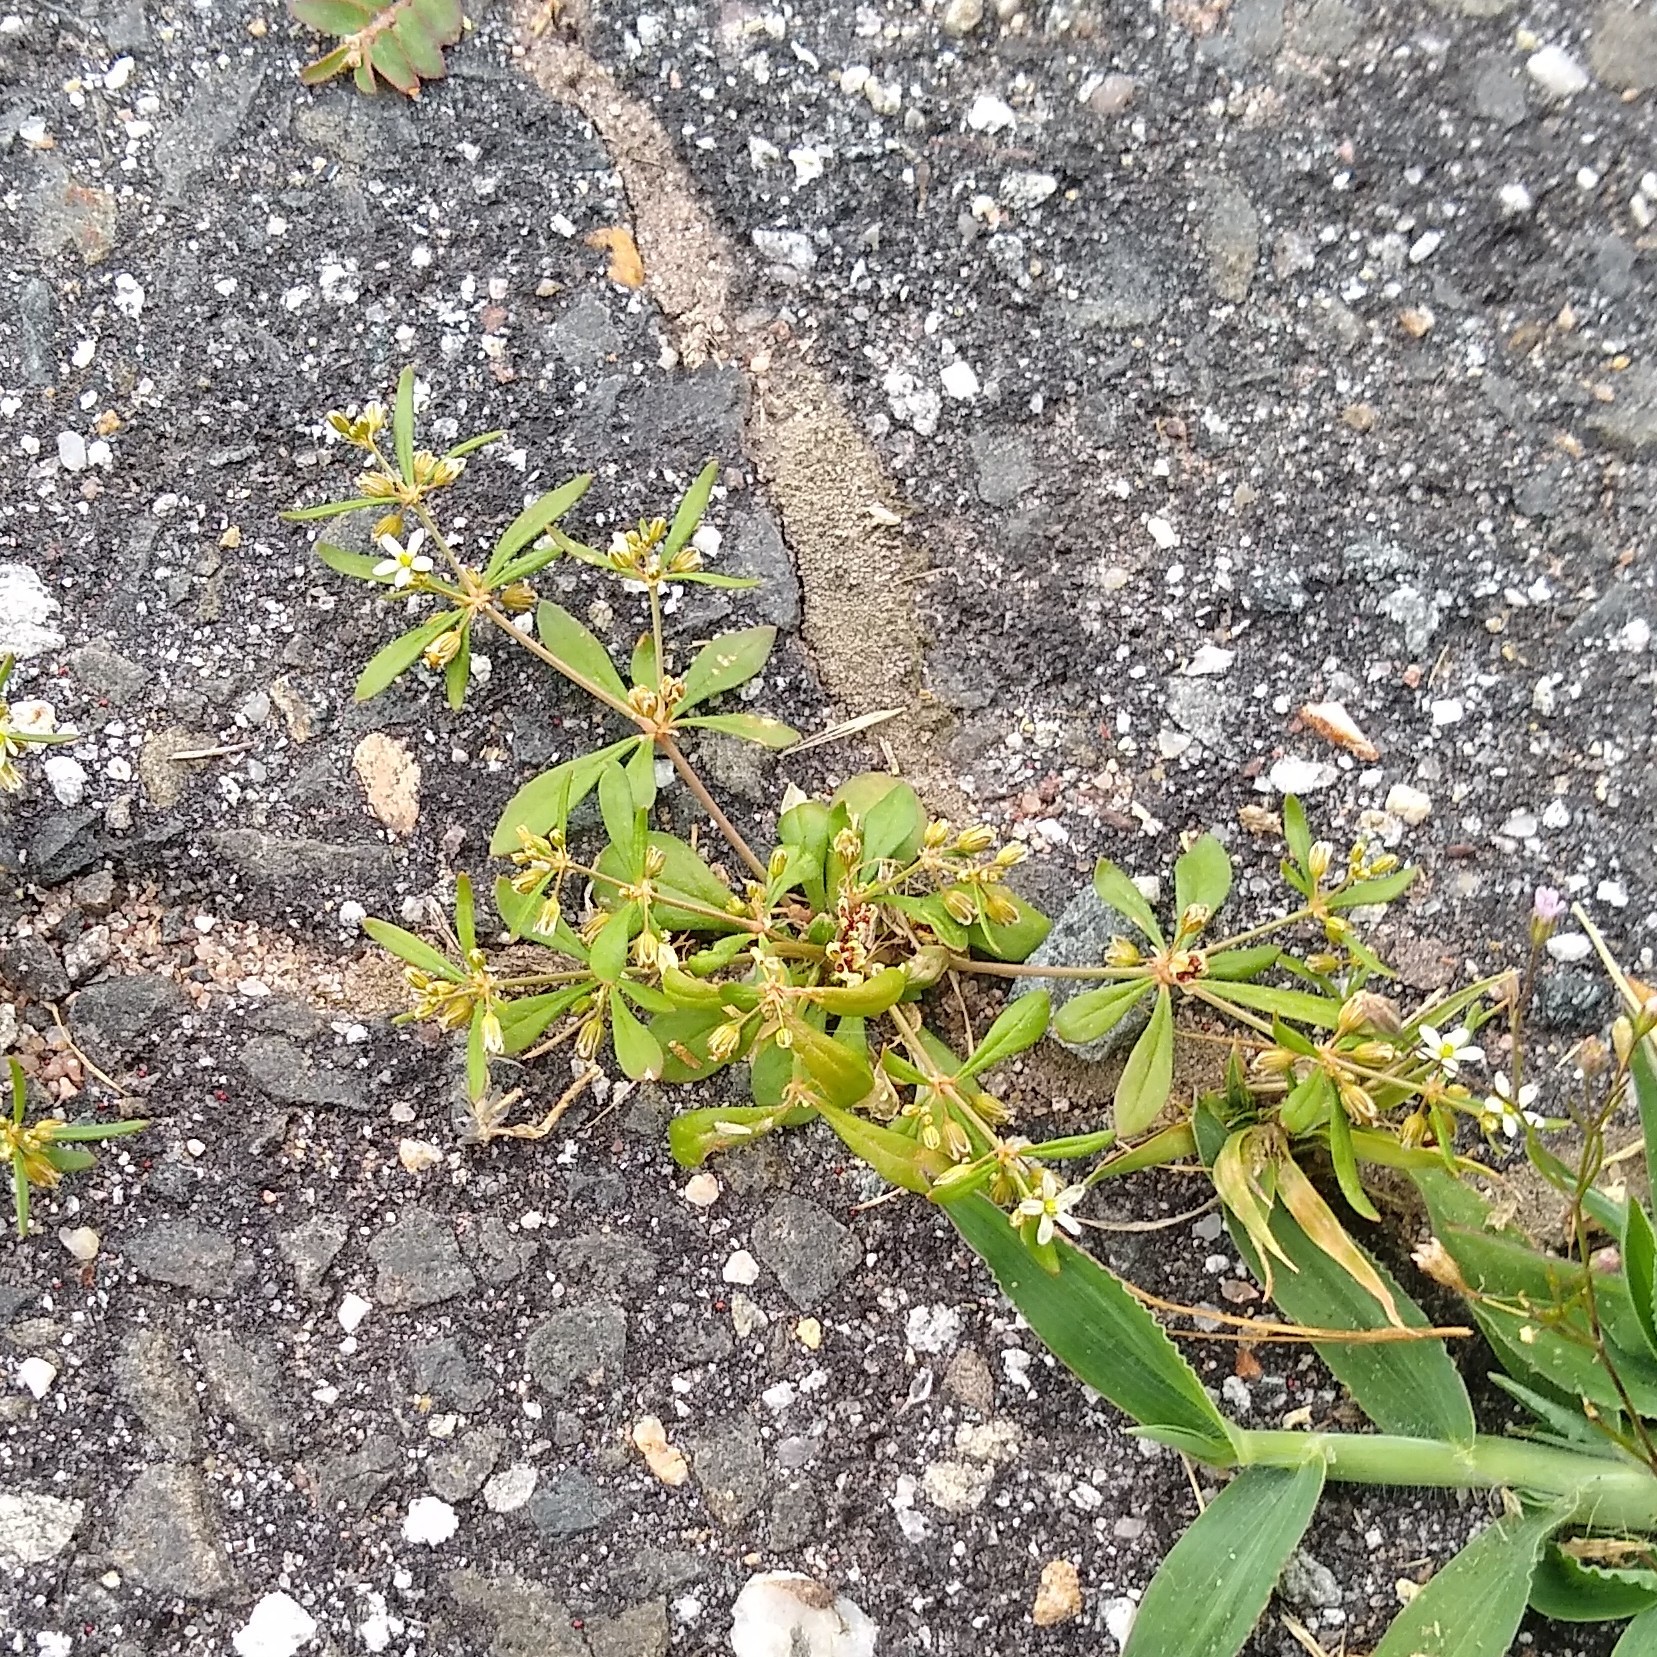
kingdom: Plantae
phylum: Tracheophyta
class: Magnoliopsida
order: Caryophyllales
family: Molluginaceae
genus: Mollugo
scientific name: Mollugo verticillata
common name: Green carpetweed
